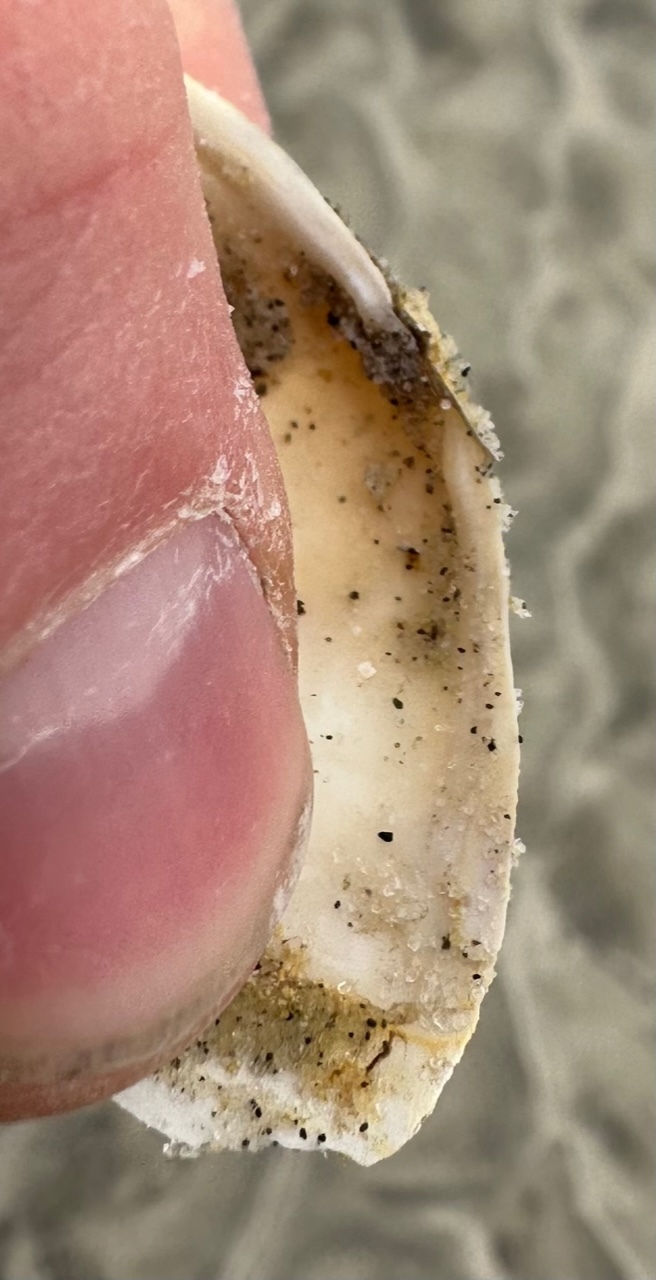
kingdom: Animalia
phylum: Mollusca
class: Bivalvia
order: Myida
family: Myidae
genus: Mya
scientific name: Mya arenaria
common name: Soft-shelled clam
